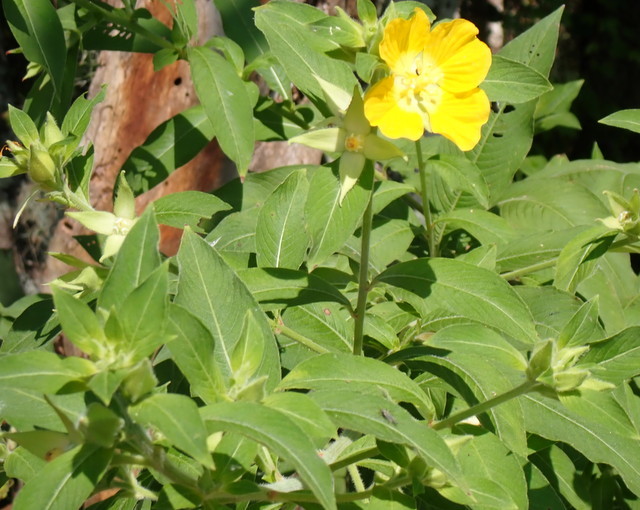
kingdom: Plantae
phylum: Tracheophyta
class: Magnoliopsida
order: Myrtales
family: Onagraceae
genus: Ludwigia
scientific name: Ludwigia peruviana
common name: Peruvian primrose-willow
